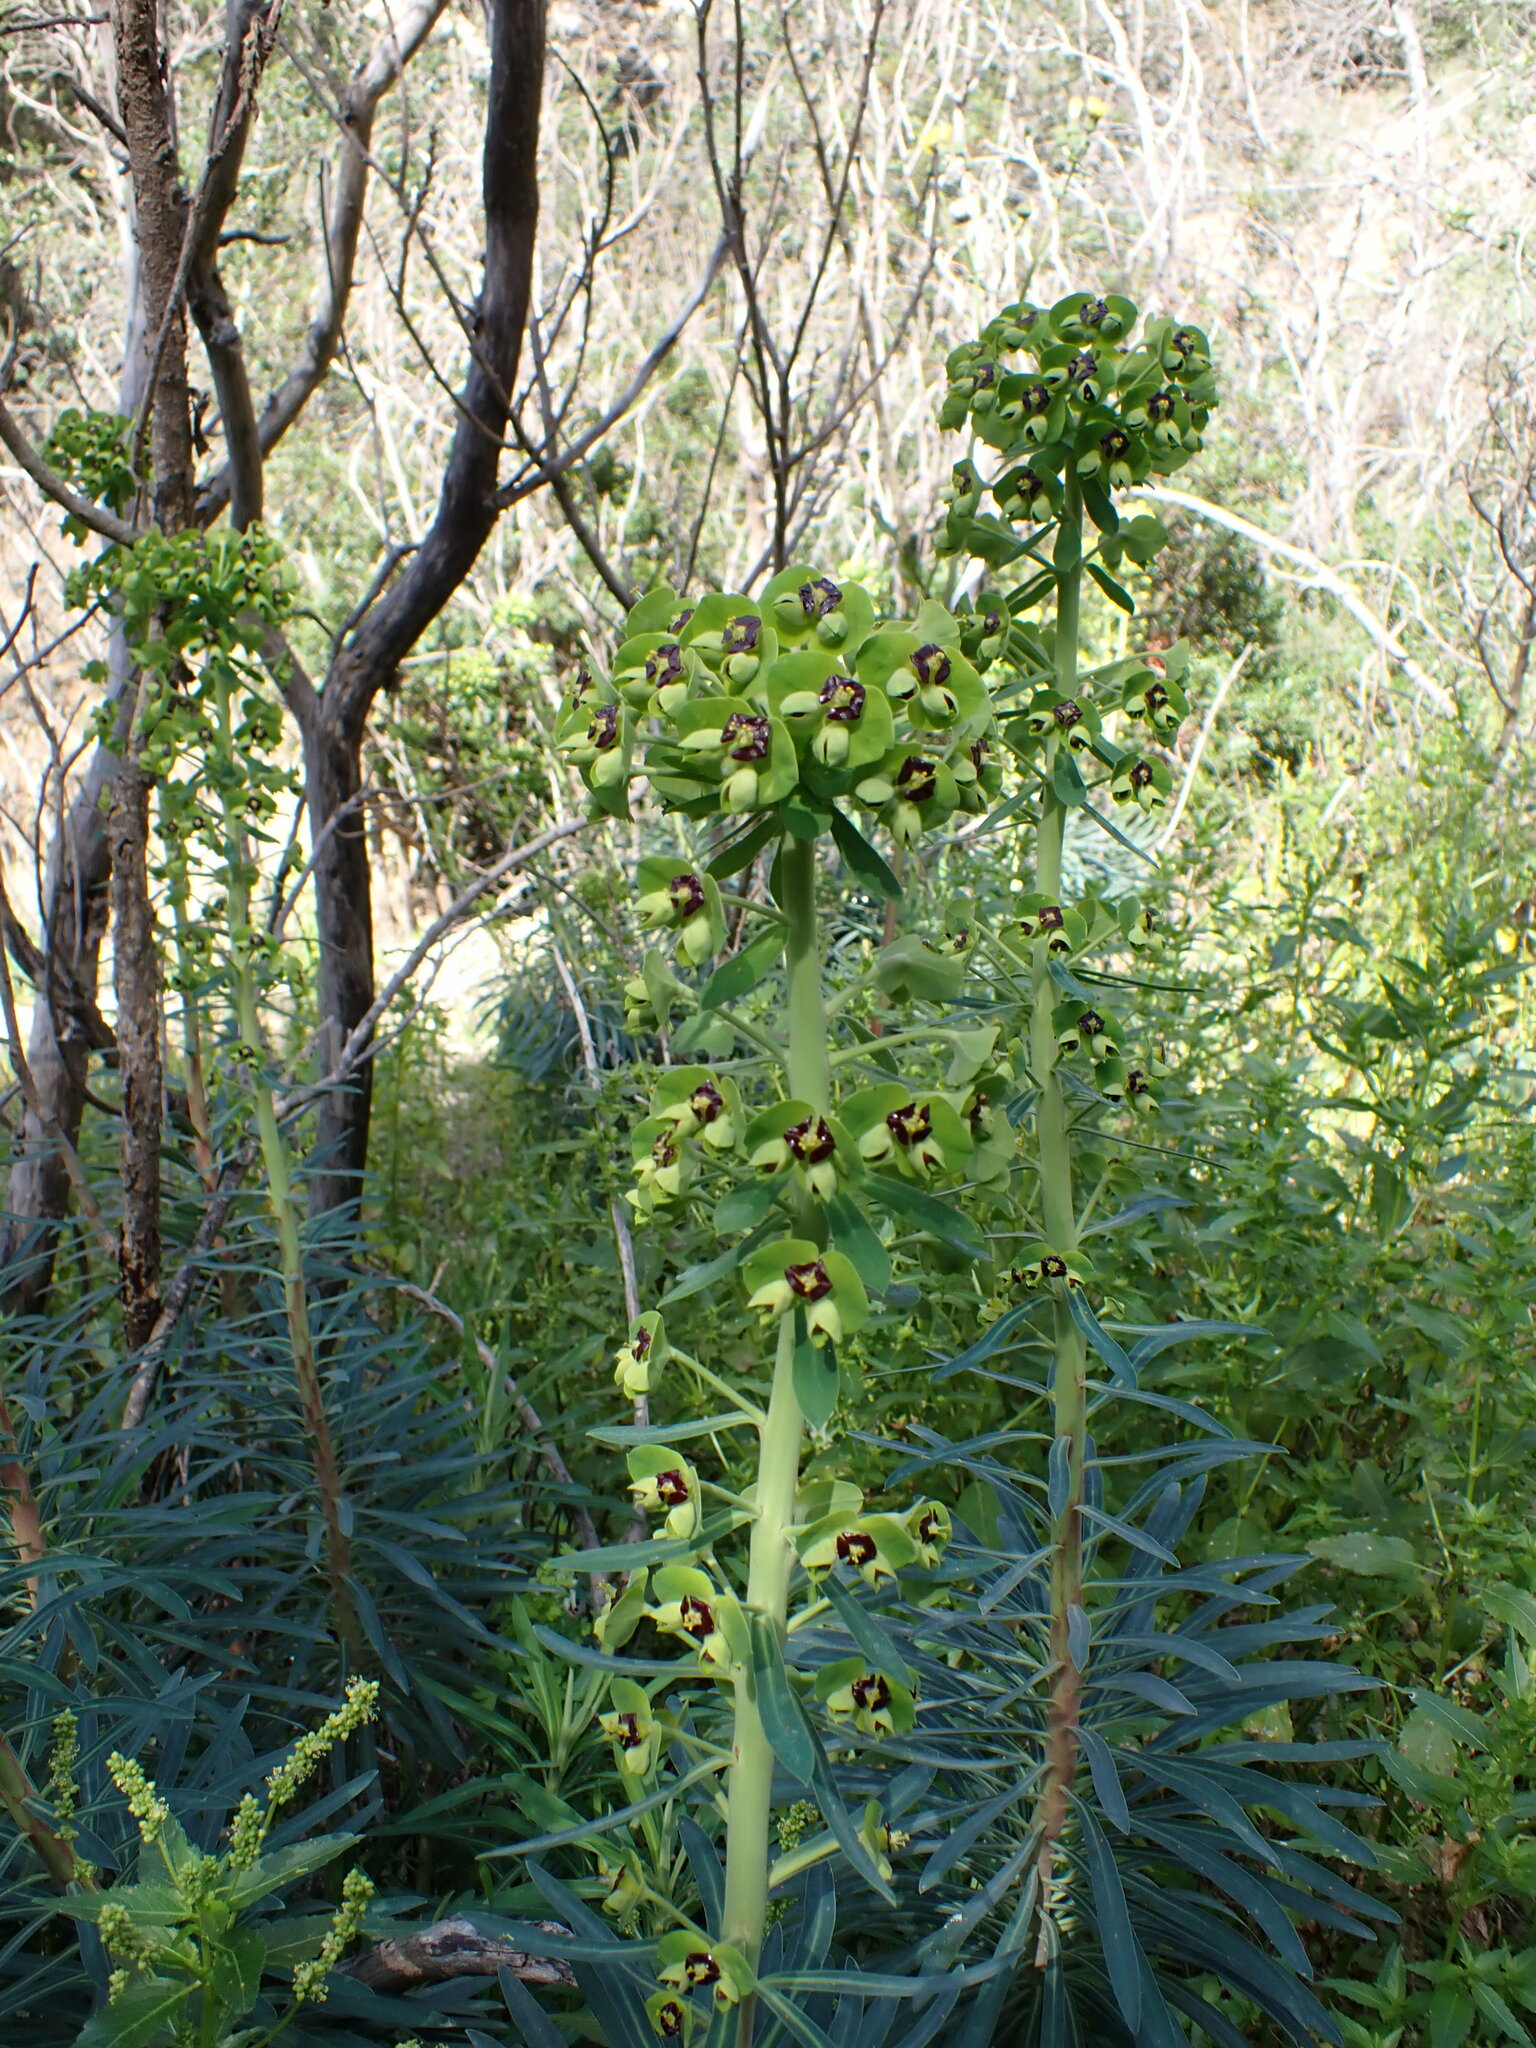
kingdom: Plantae
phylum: Tracheophyta
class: Magnoliopsida
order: Malpighiales
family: Euphorbiaceae
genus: Euphorbia
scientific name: Euphorbia characias
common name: Mediterranean spurge
